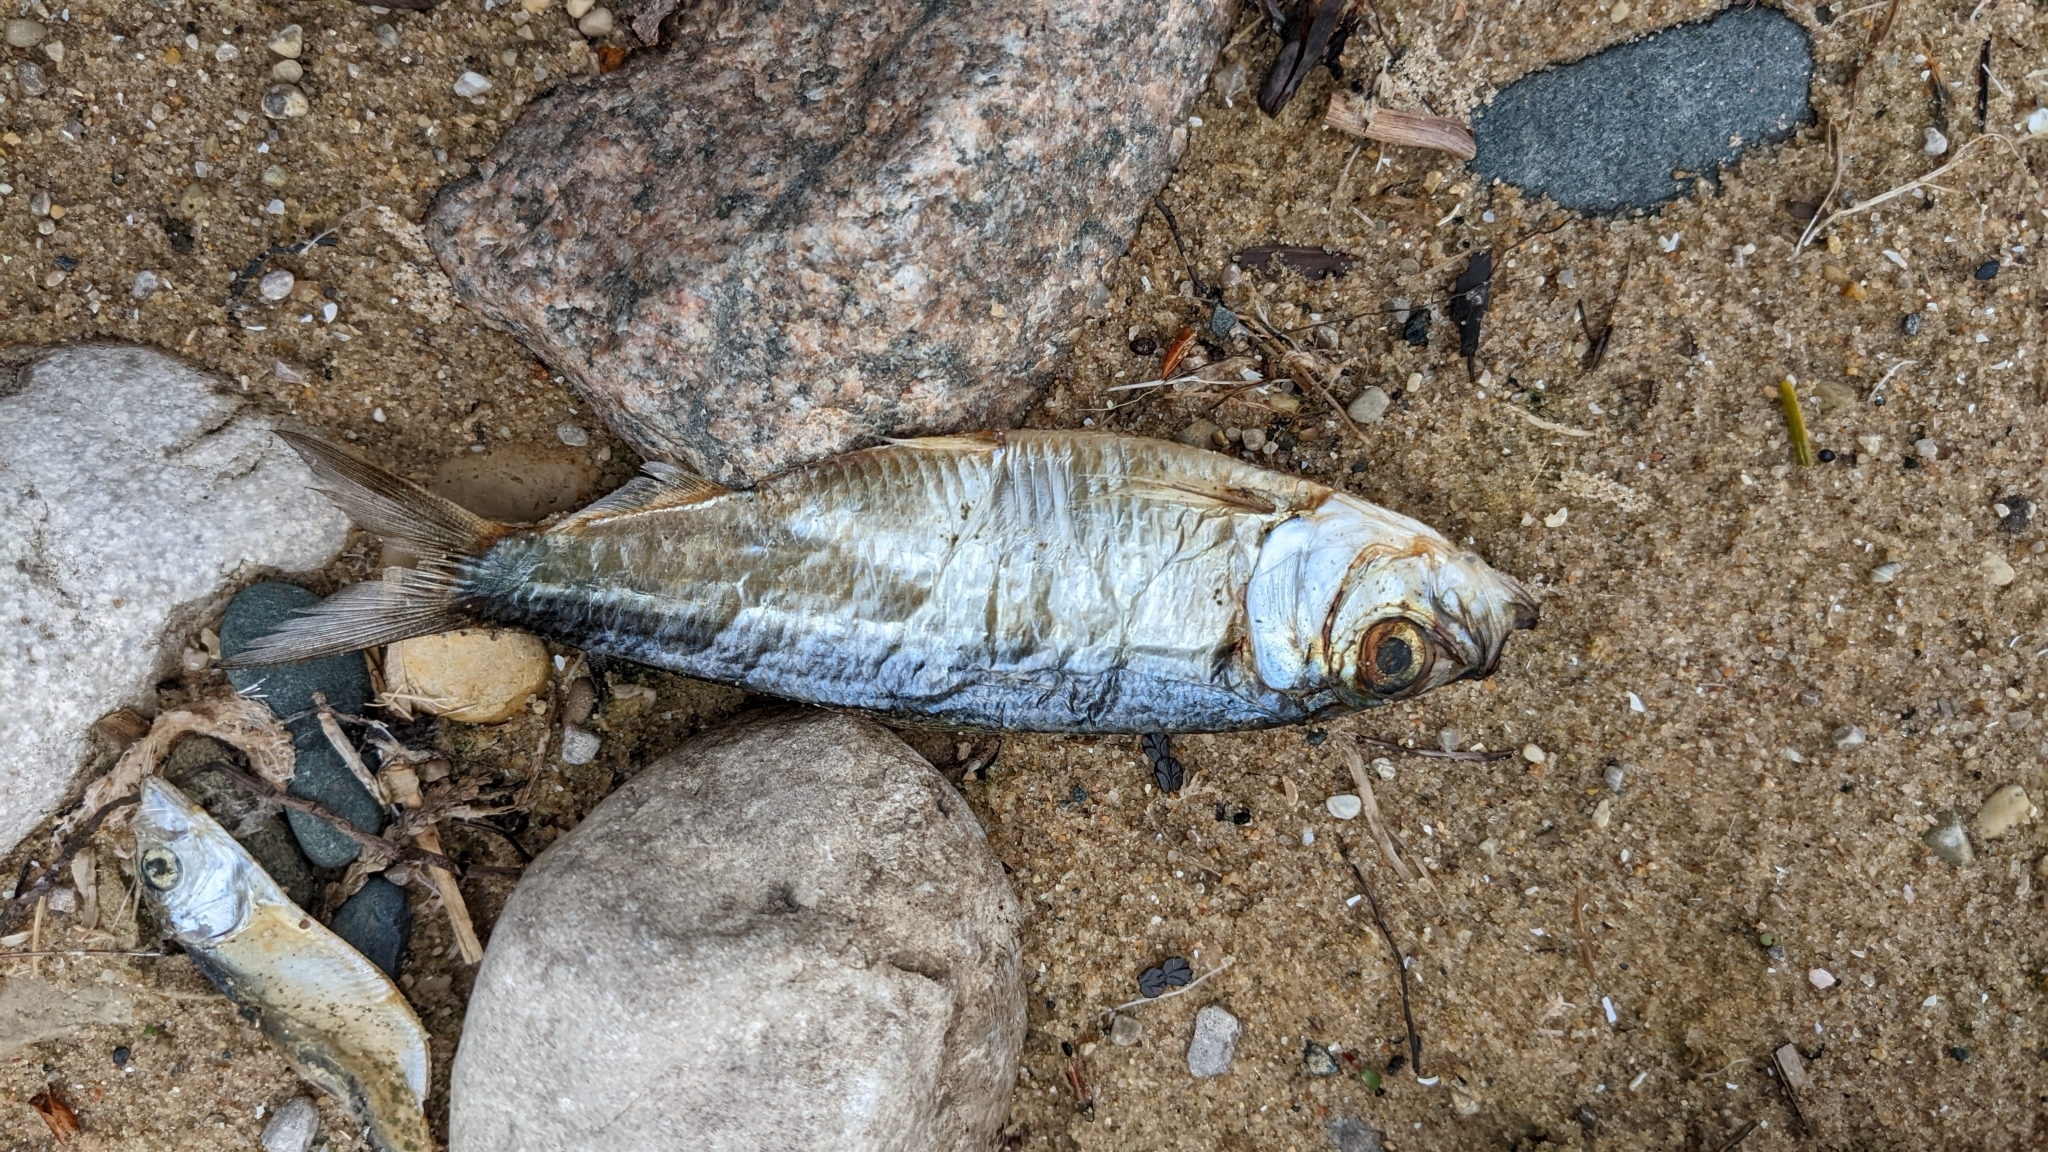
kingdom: Animalia
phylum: Chordata
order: Clupeiformes
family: Clupeidae
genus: Alosa
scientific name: Alosa pseudoharengus
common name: Alewife
